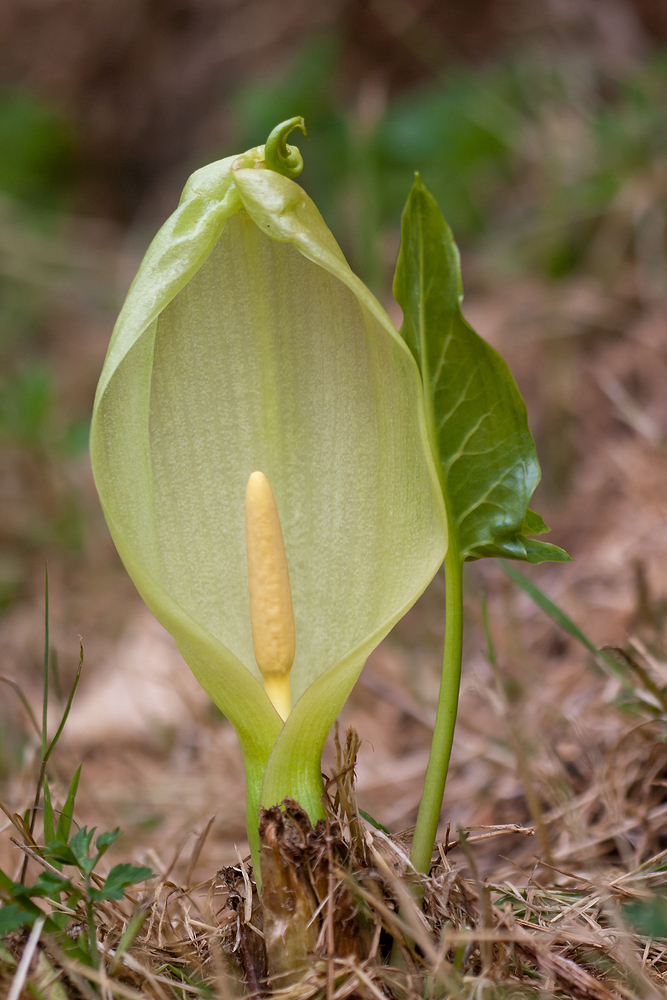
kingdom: Plantae
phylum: Tracheophyta
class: Liliopsida
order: Alismatales
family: Araceae
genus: Arum
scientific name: Arum italicum
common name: Italian lords-and-ladies
